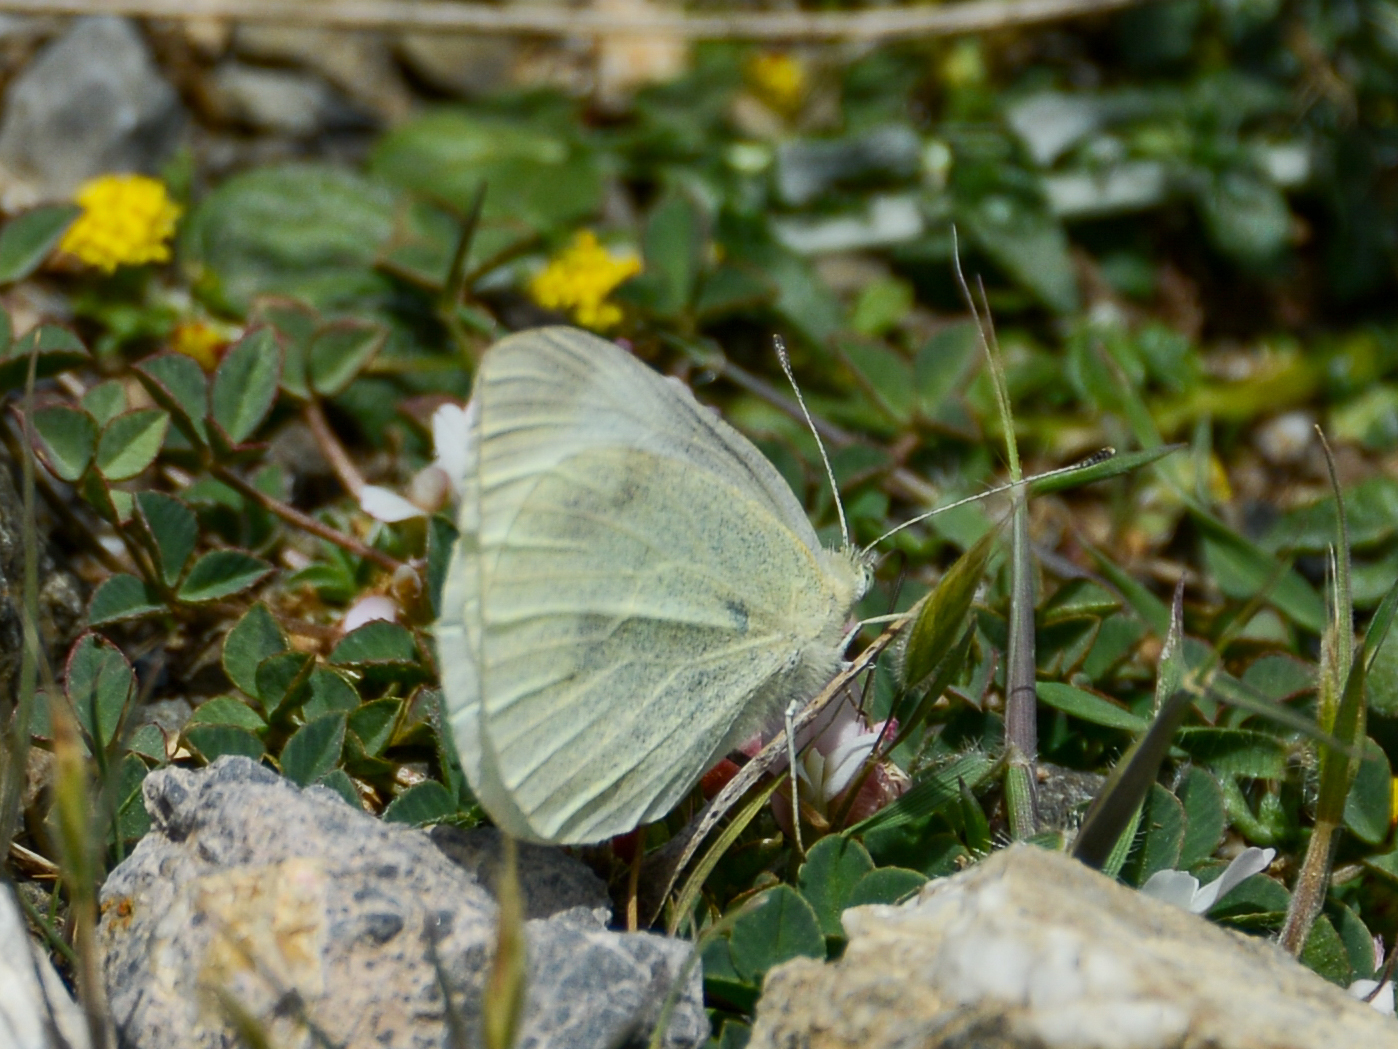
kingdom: Animalia
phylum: Arthropoda
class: Insecta
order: Lepidoptera
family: Pieridae
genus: Pieris
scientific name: Pieris rapae
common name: Small white
